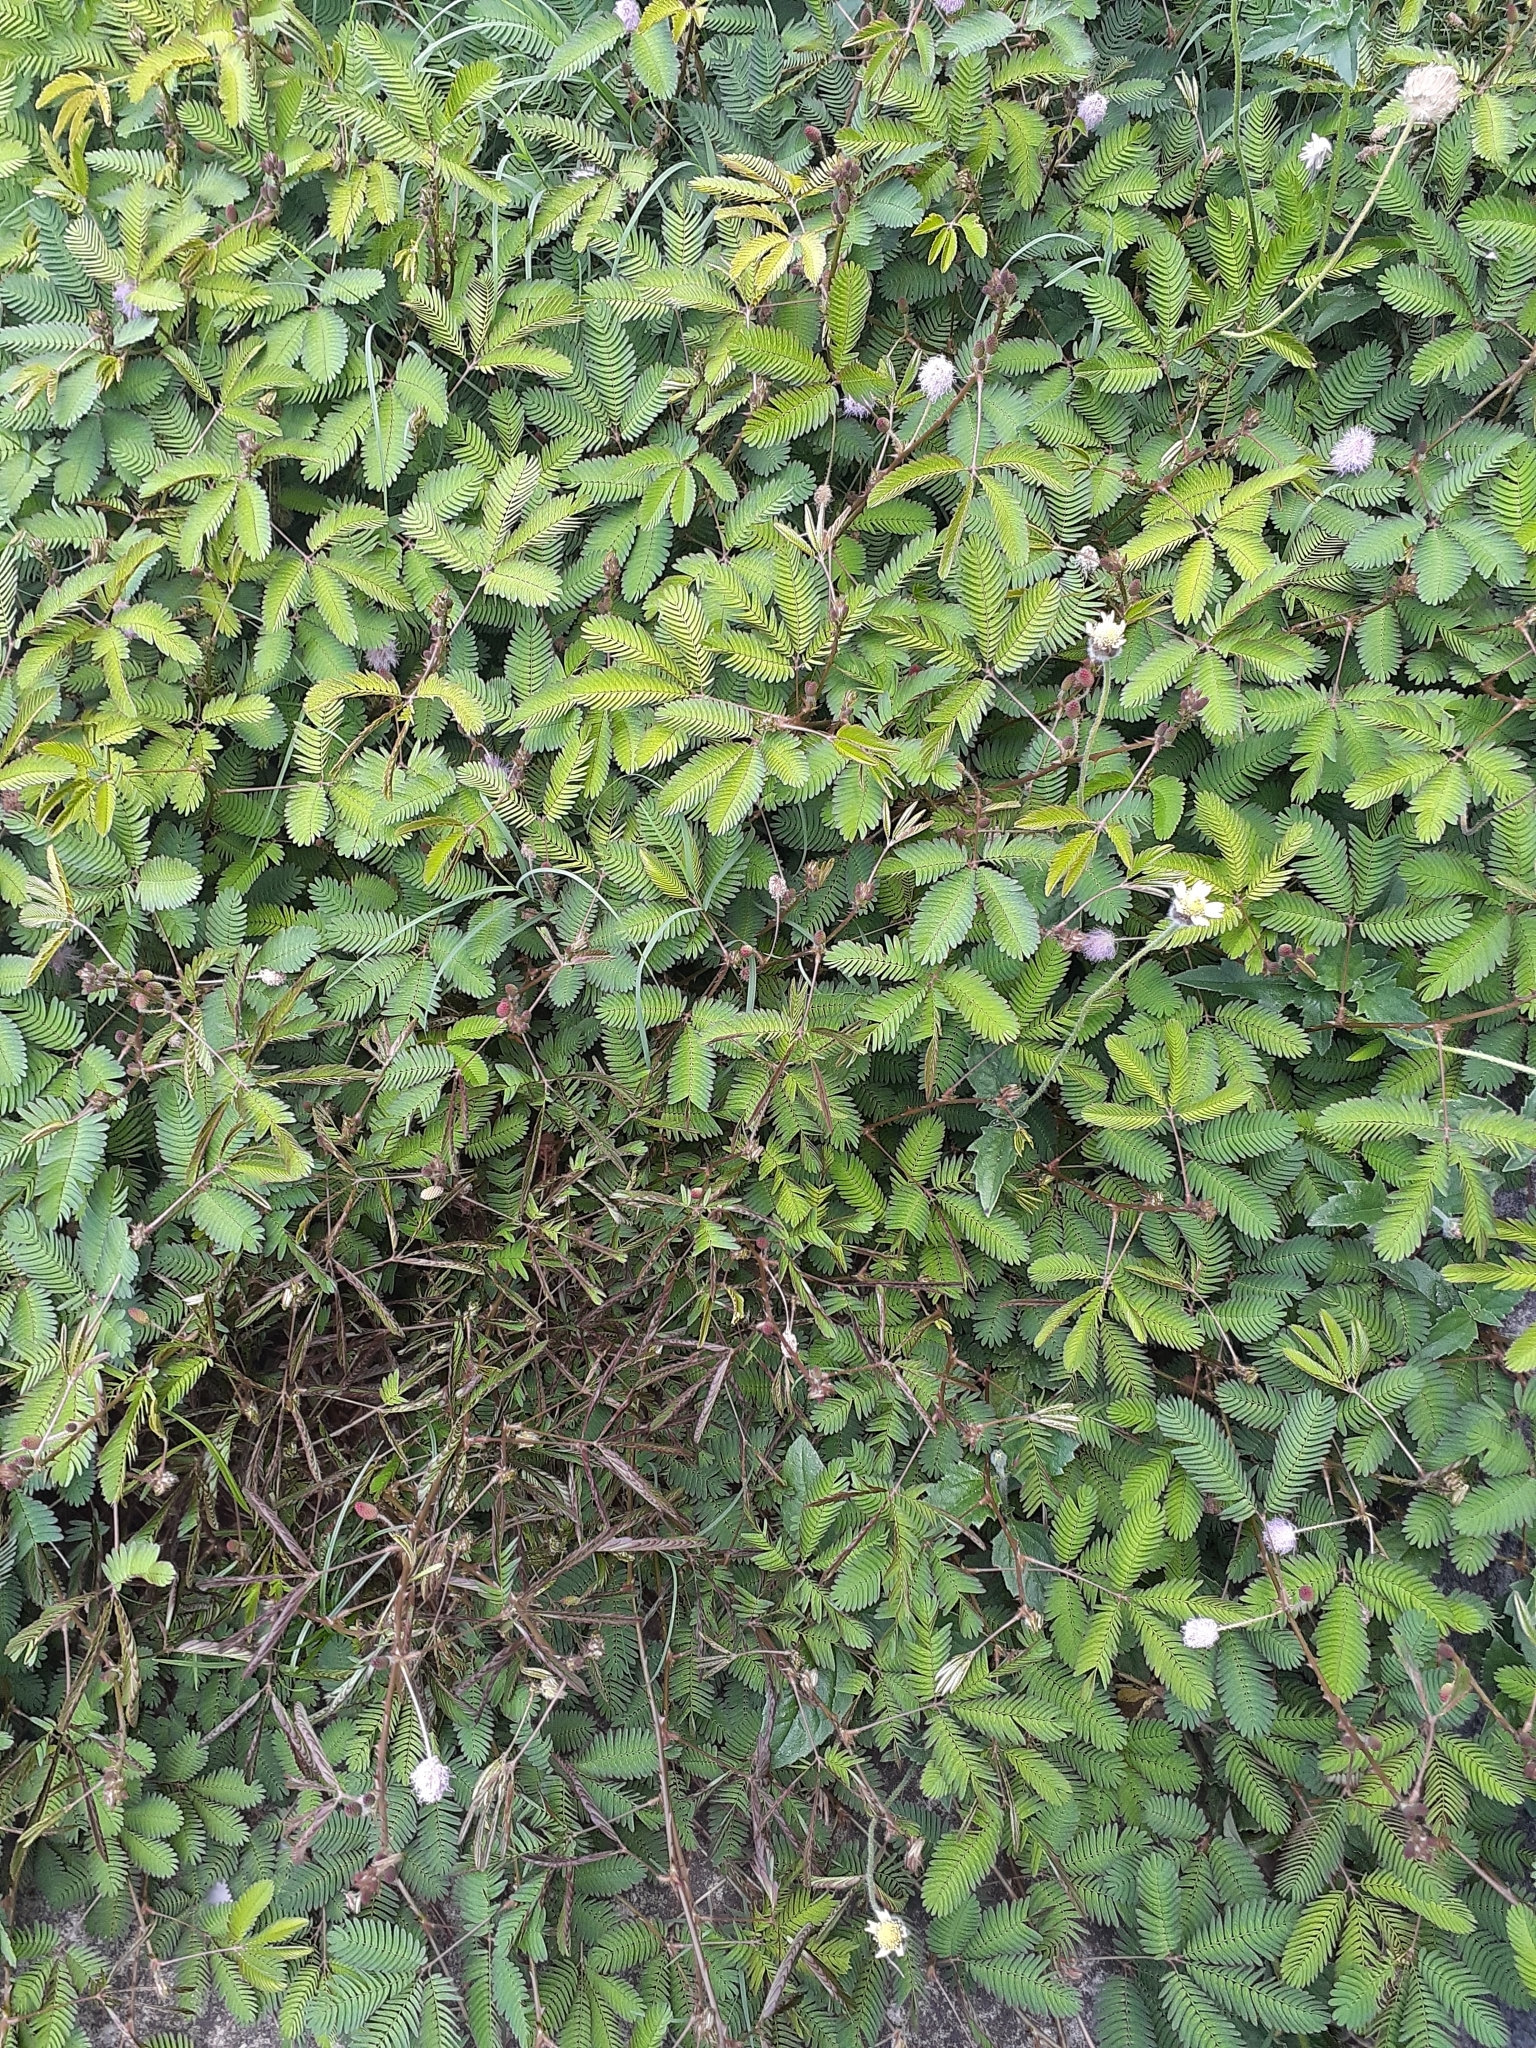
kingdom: Plantae
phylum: Tracheophyta
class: Magnoliopsida
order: Fabales
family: Fabaceae
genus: Mimosa
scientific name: Mimosa pudica
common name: Sensitive plant
